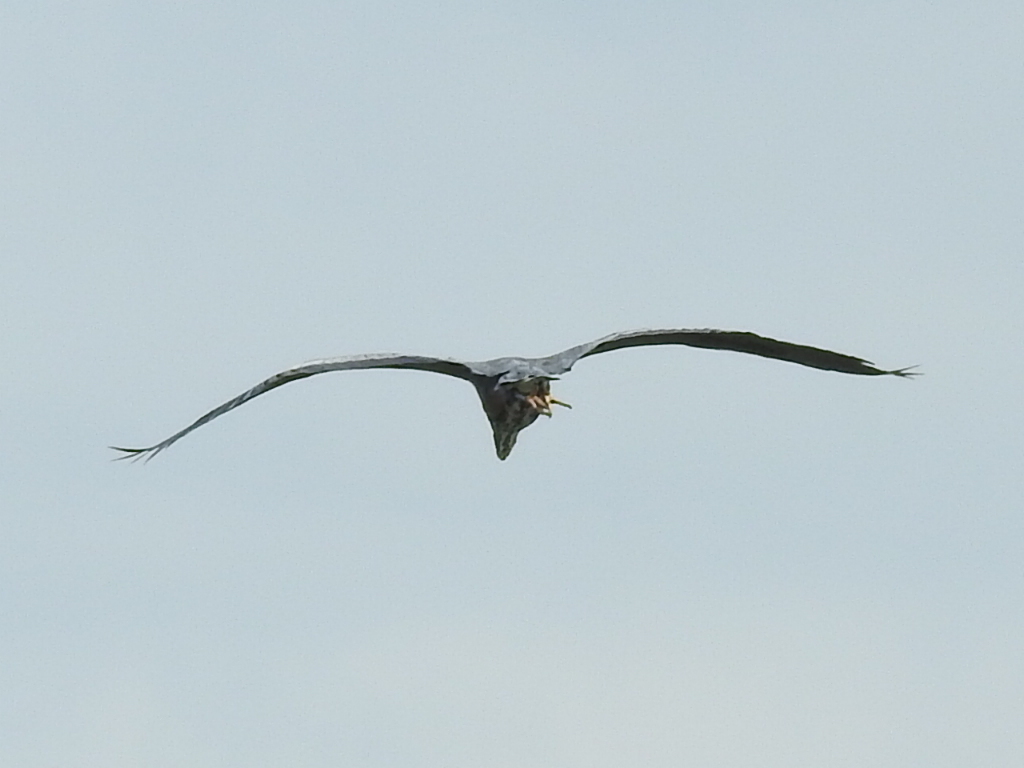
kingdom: Animalia
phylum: Chordata
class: Aves
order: Pelecaniformes
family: Ardeidae
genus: Ardea
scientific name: Ardea herodias
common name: Great blue heron
